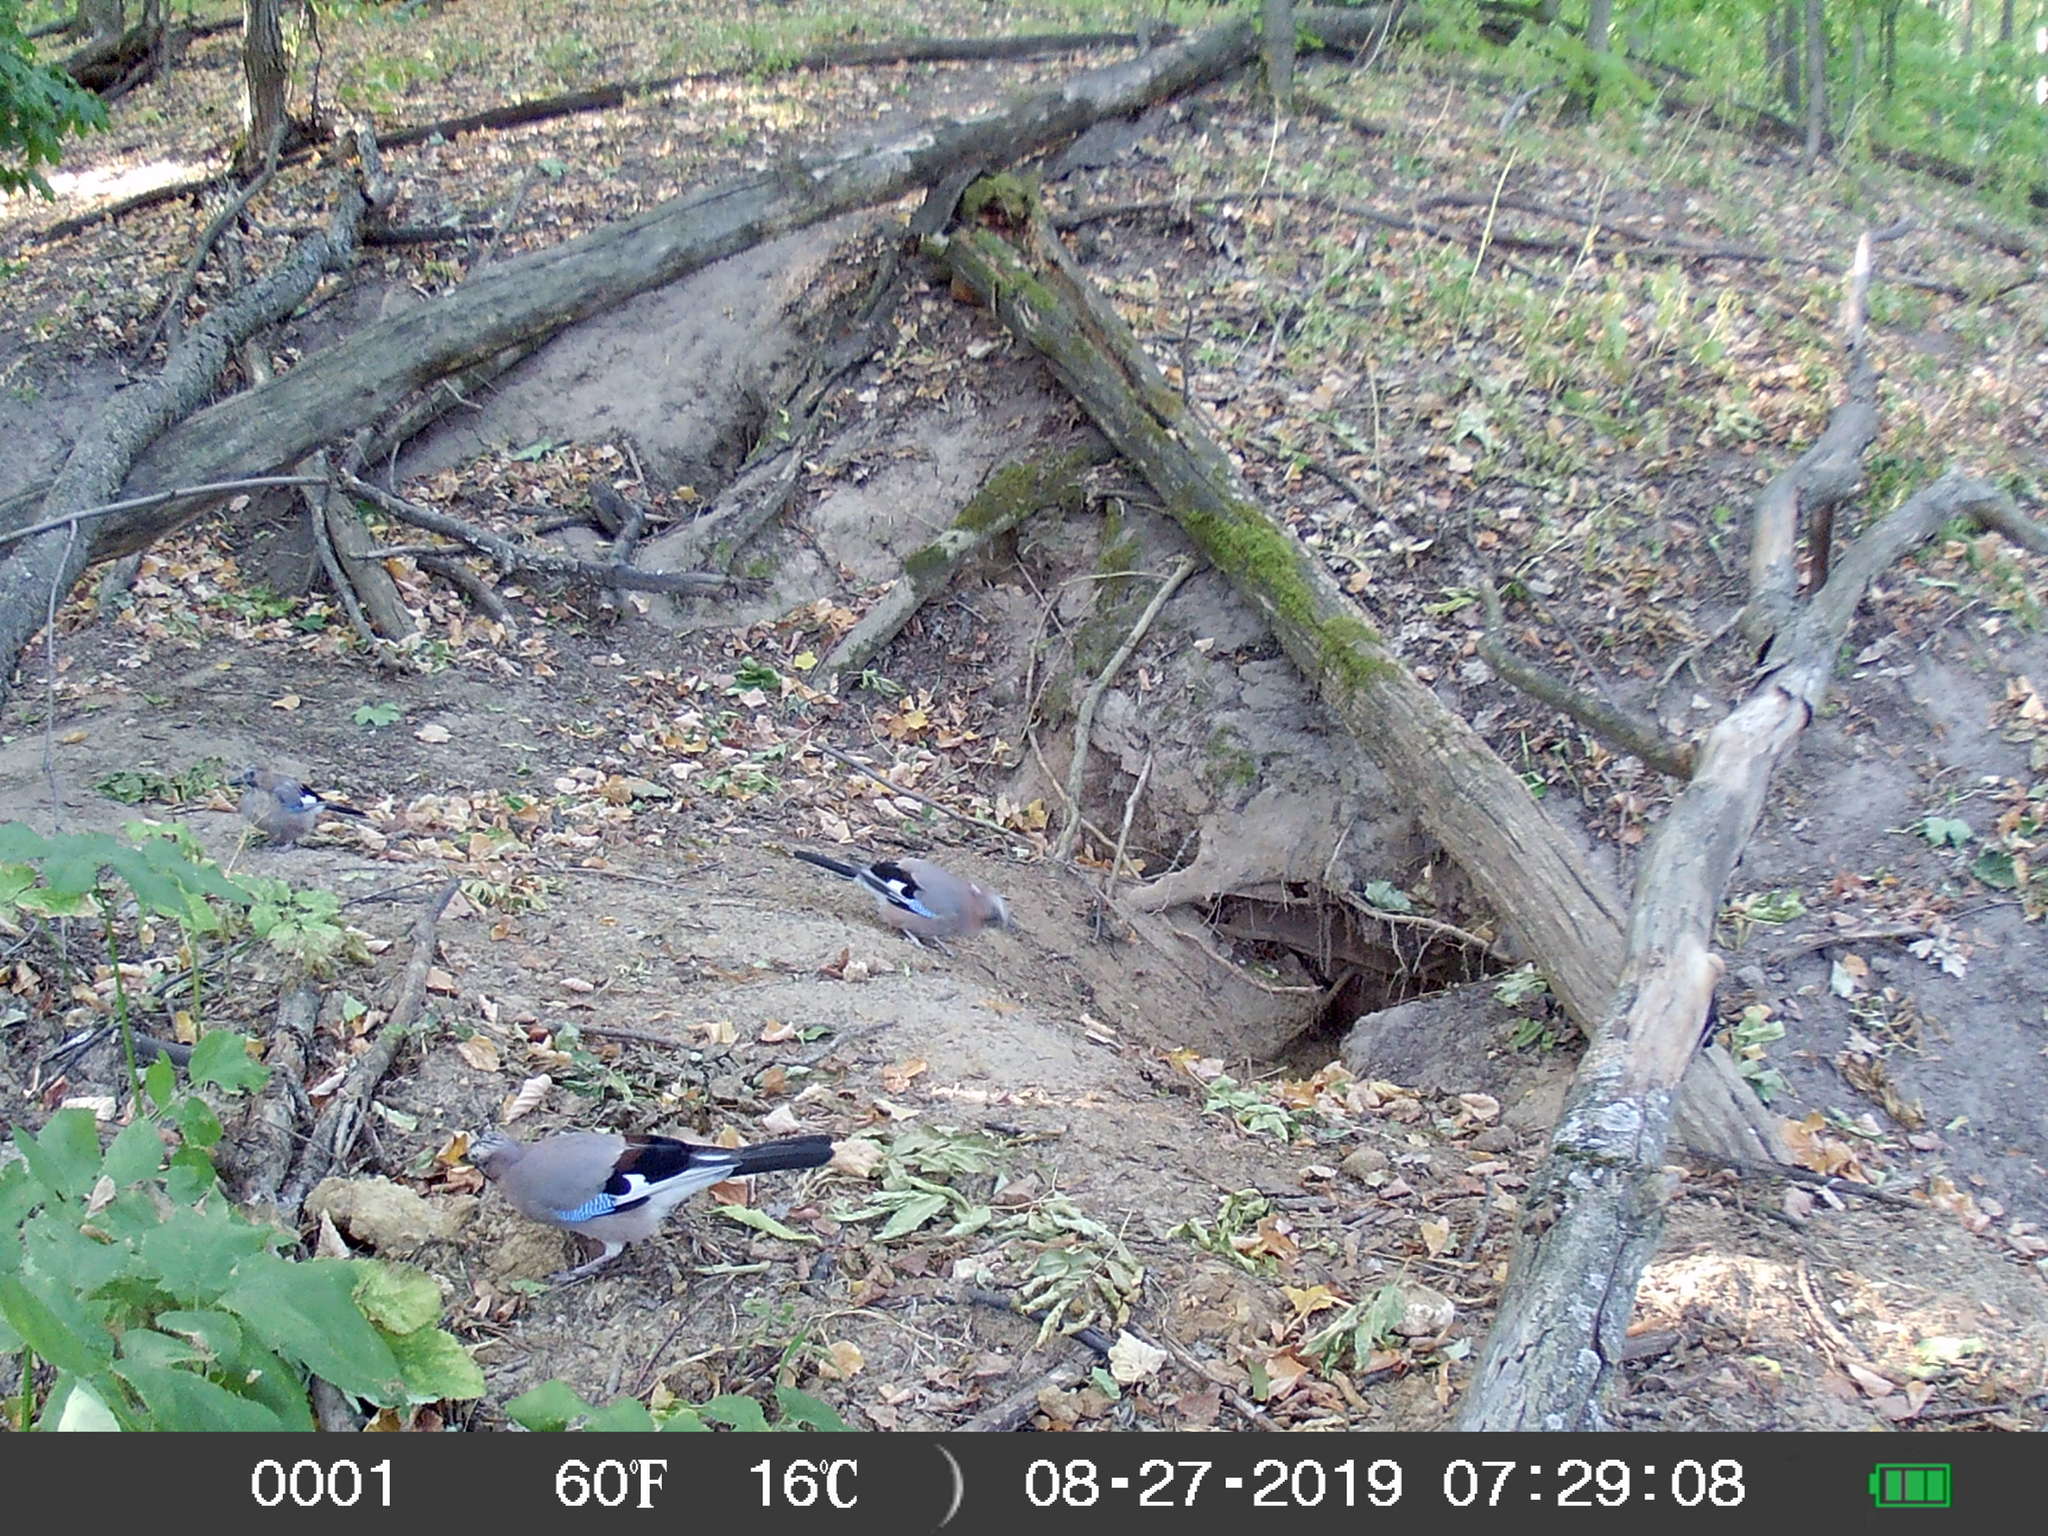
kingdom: Animalia
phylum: Chordata
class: Aves
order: Passeriformes
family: Corvidae
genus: Garrulus
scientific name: Garrulus glandarius
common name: Eurasian jay
